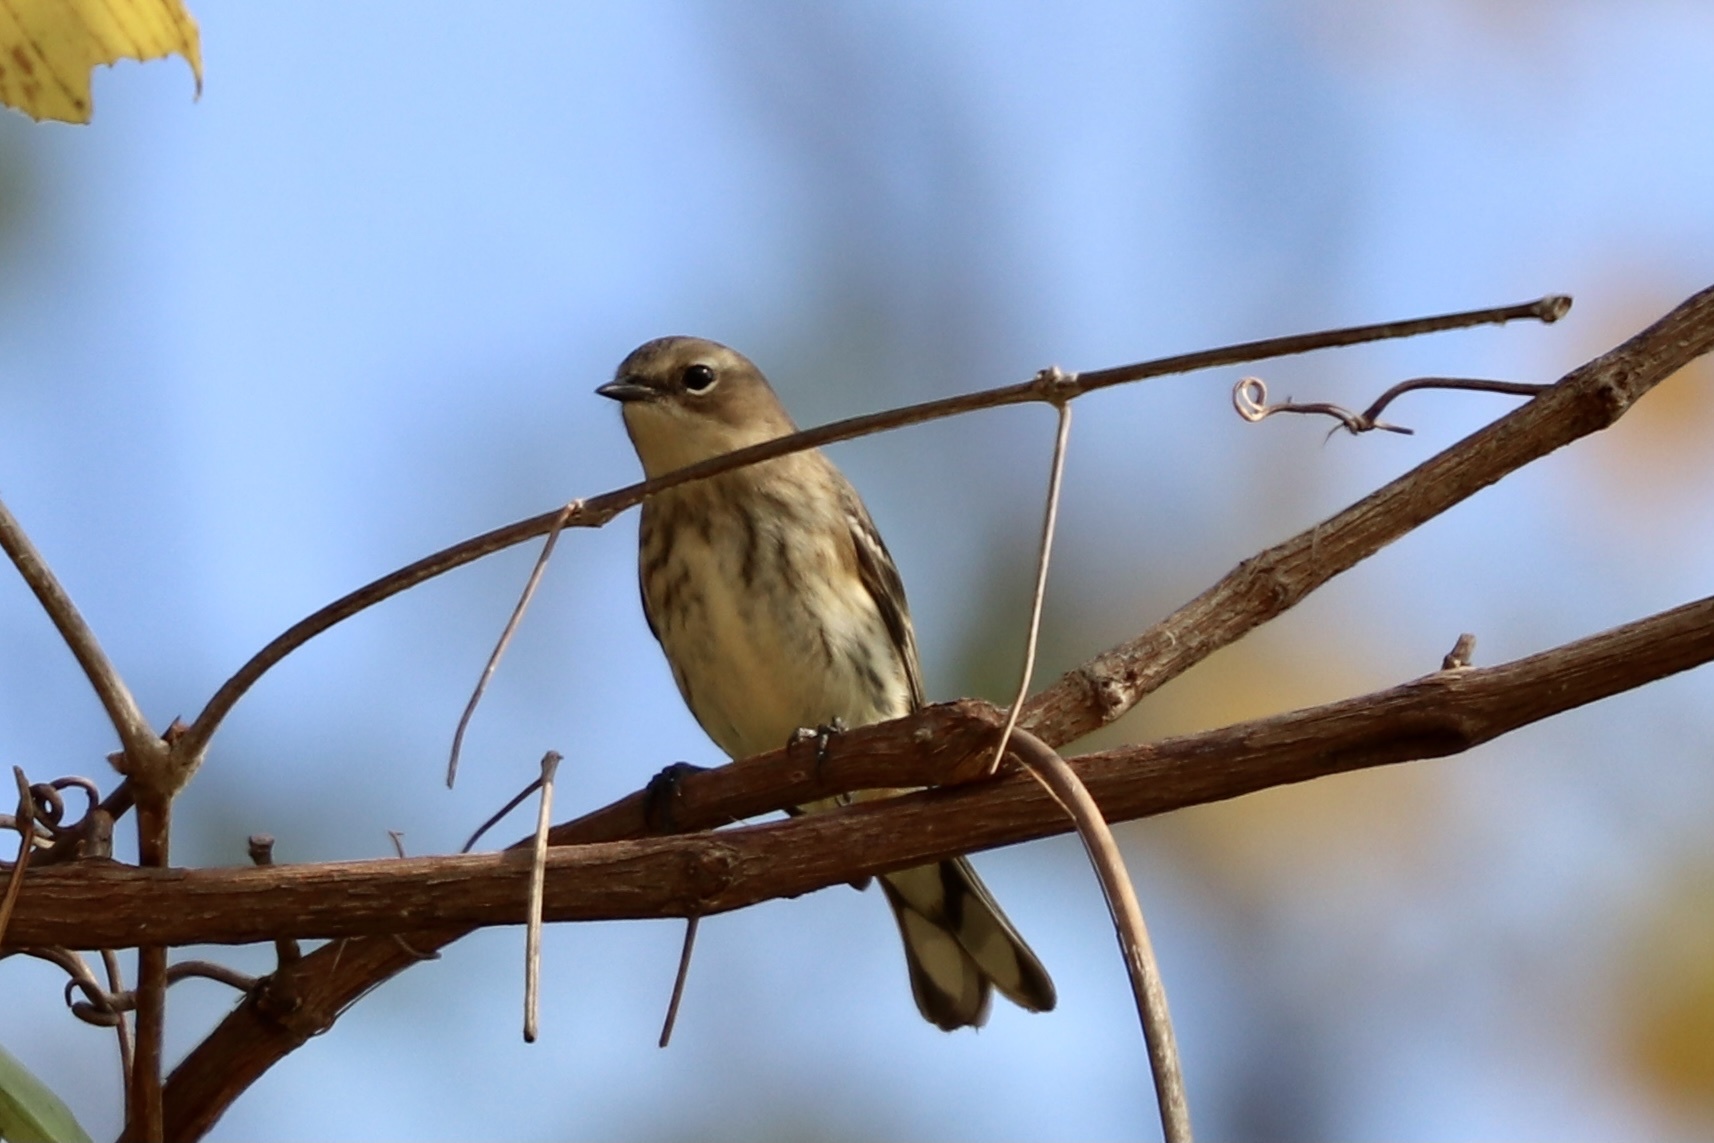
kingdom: Animalia
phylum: Chordata
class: Aves
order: Passeriformes
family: Parulidae
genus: Setophaga
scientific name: Setophaga coronata
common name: Myrtle warbler
